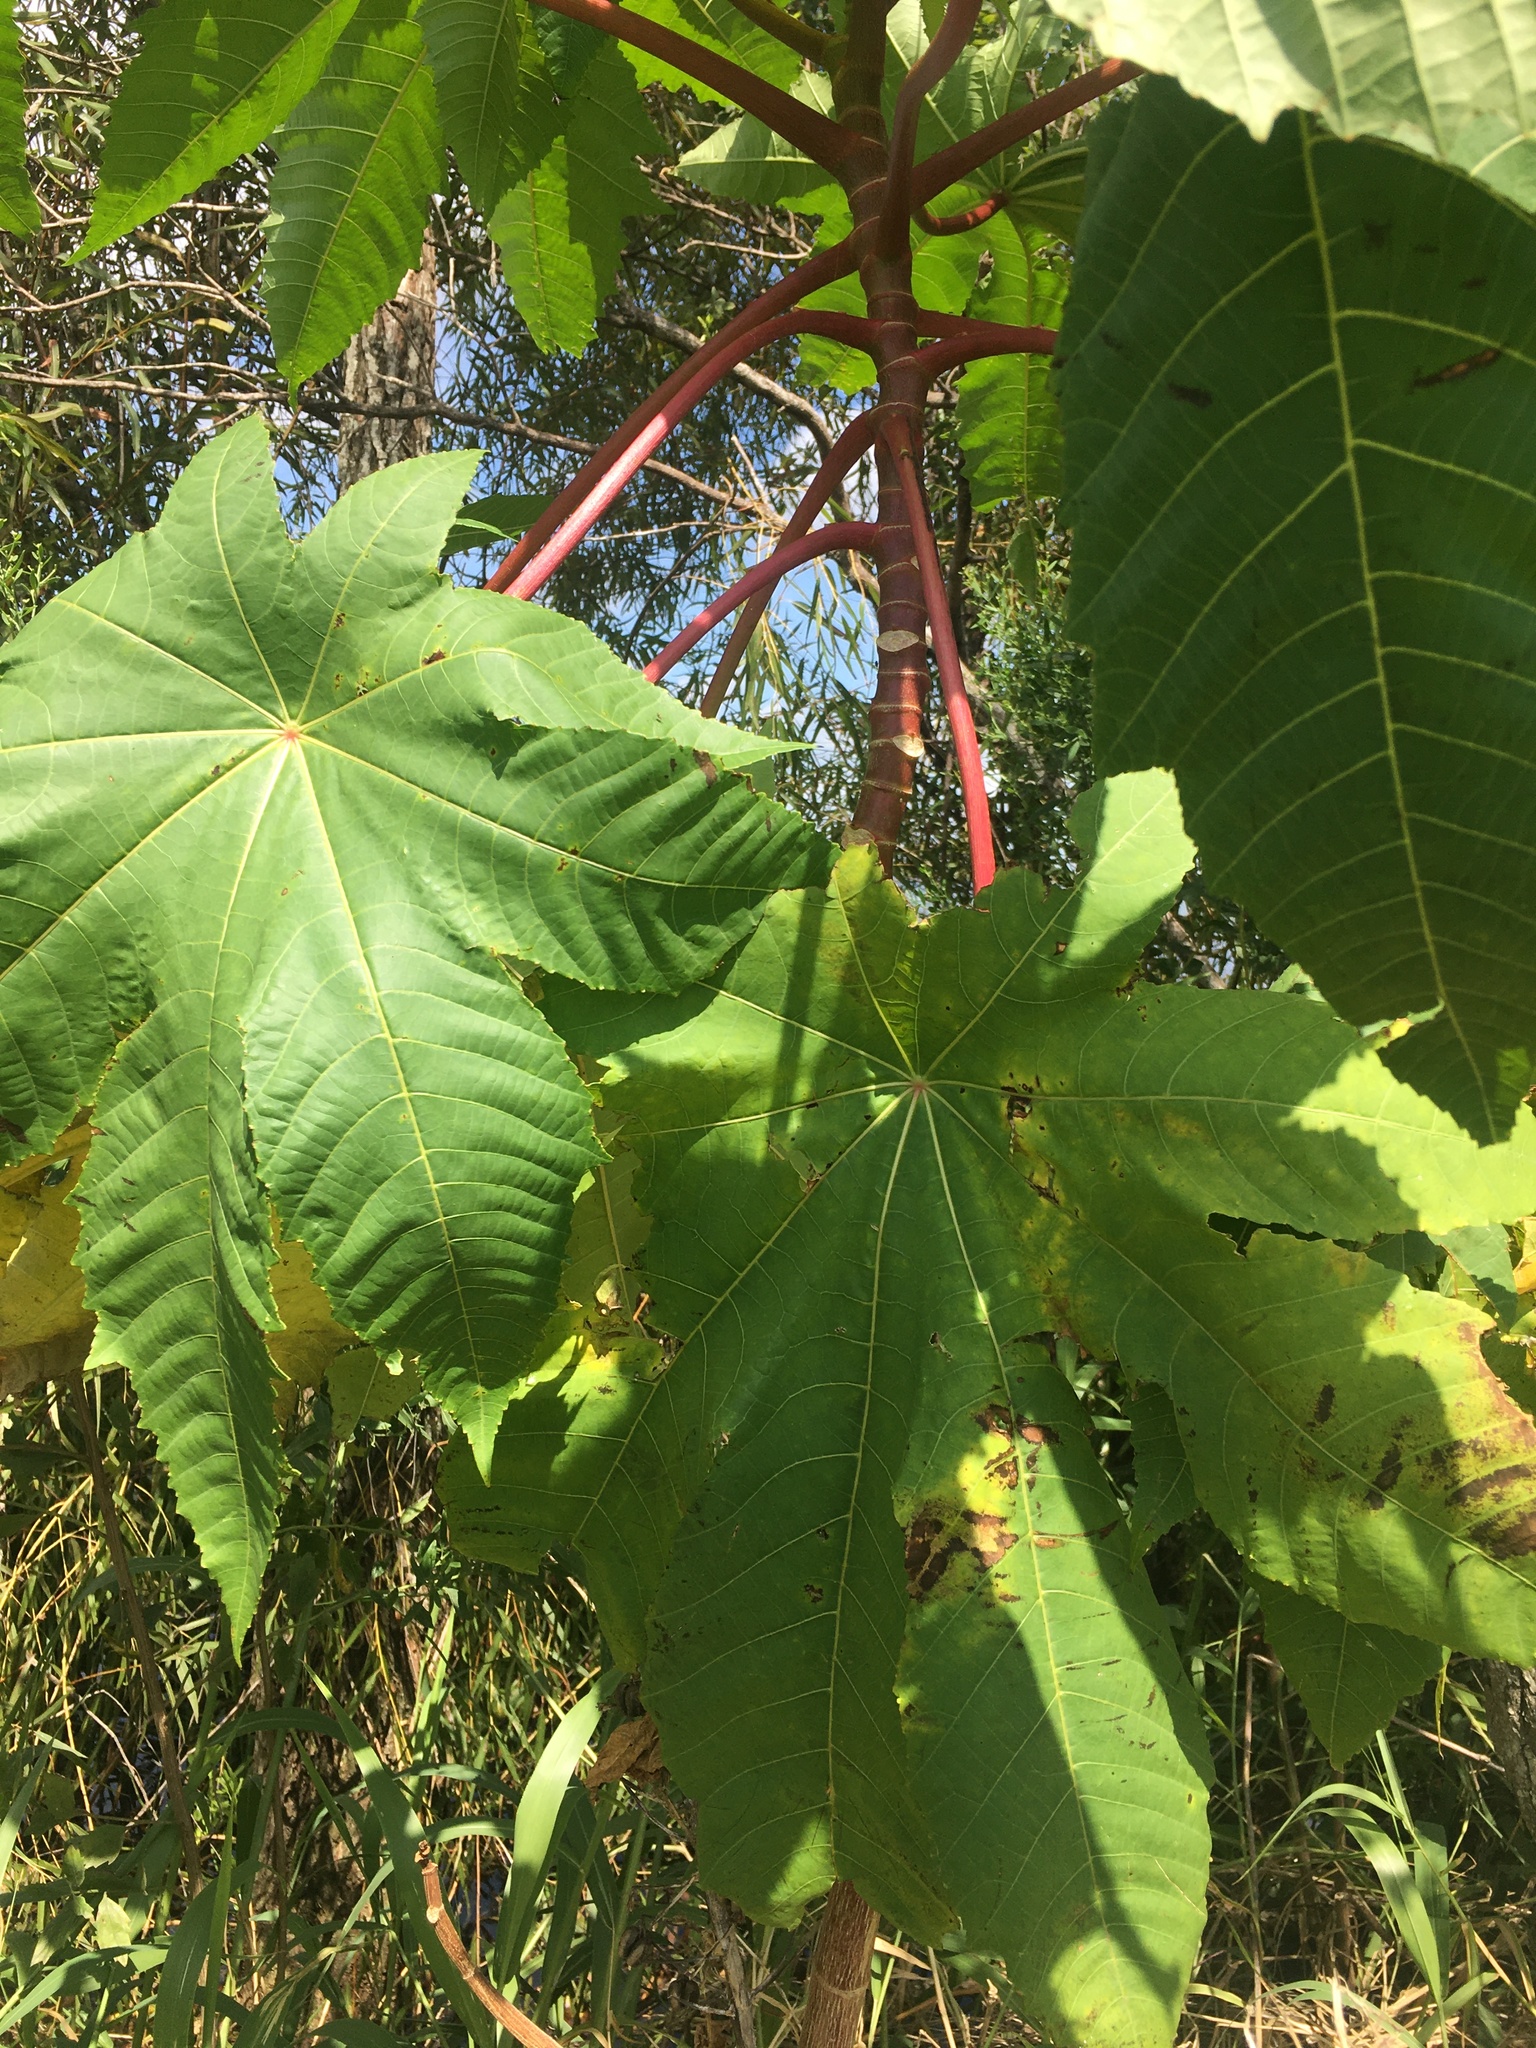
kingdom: Plantae
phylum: Tracheophyta
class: Magnoliopsida
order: Malpighiales
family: Euphorbiaceae
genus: Ricinus
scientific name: Ricinus communis
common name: Castor-oil-plant
